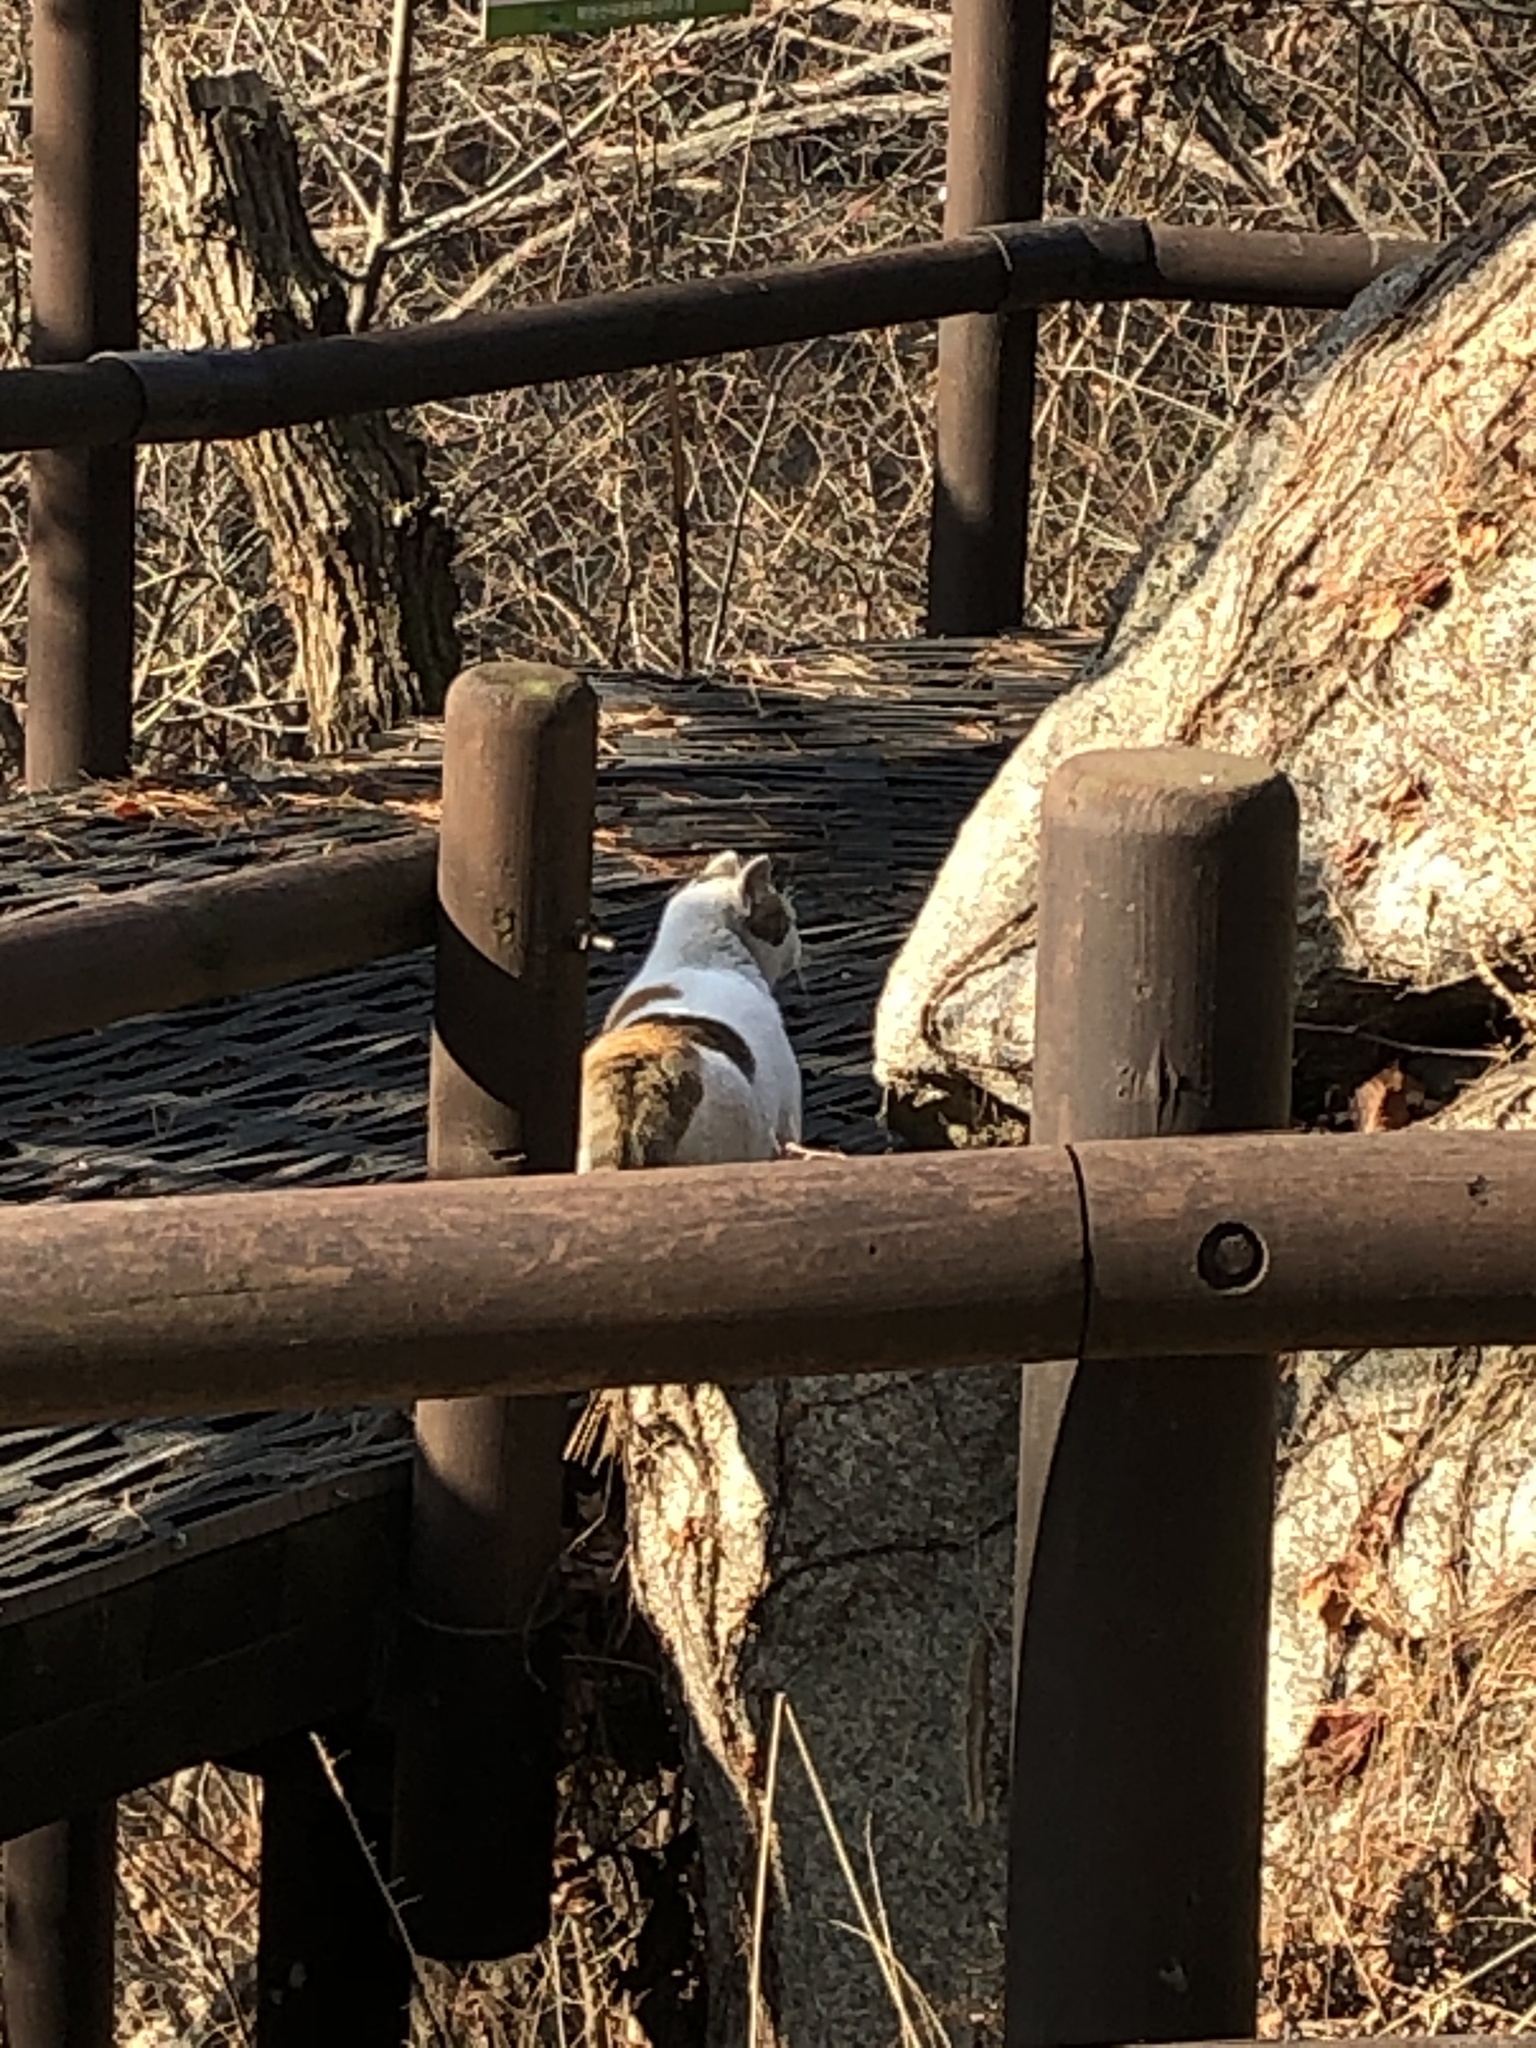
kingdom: Animalia
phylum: Chordata
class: Mammalia
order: Carnivora
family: Felidae
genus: Felis
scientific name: Felis catus
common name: Domestic cat
